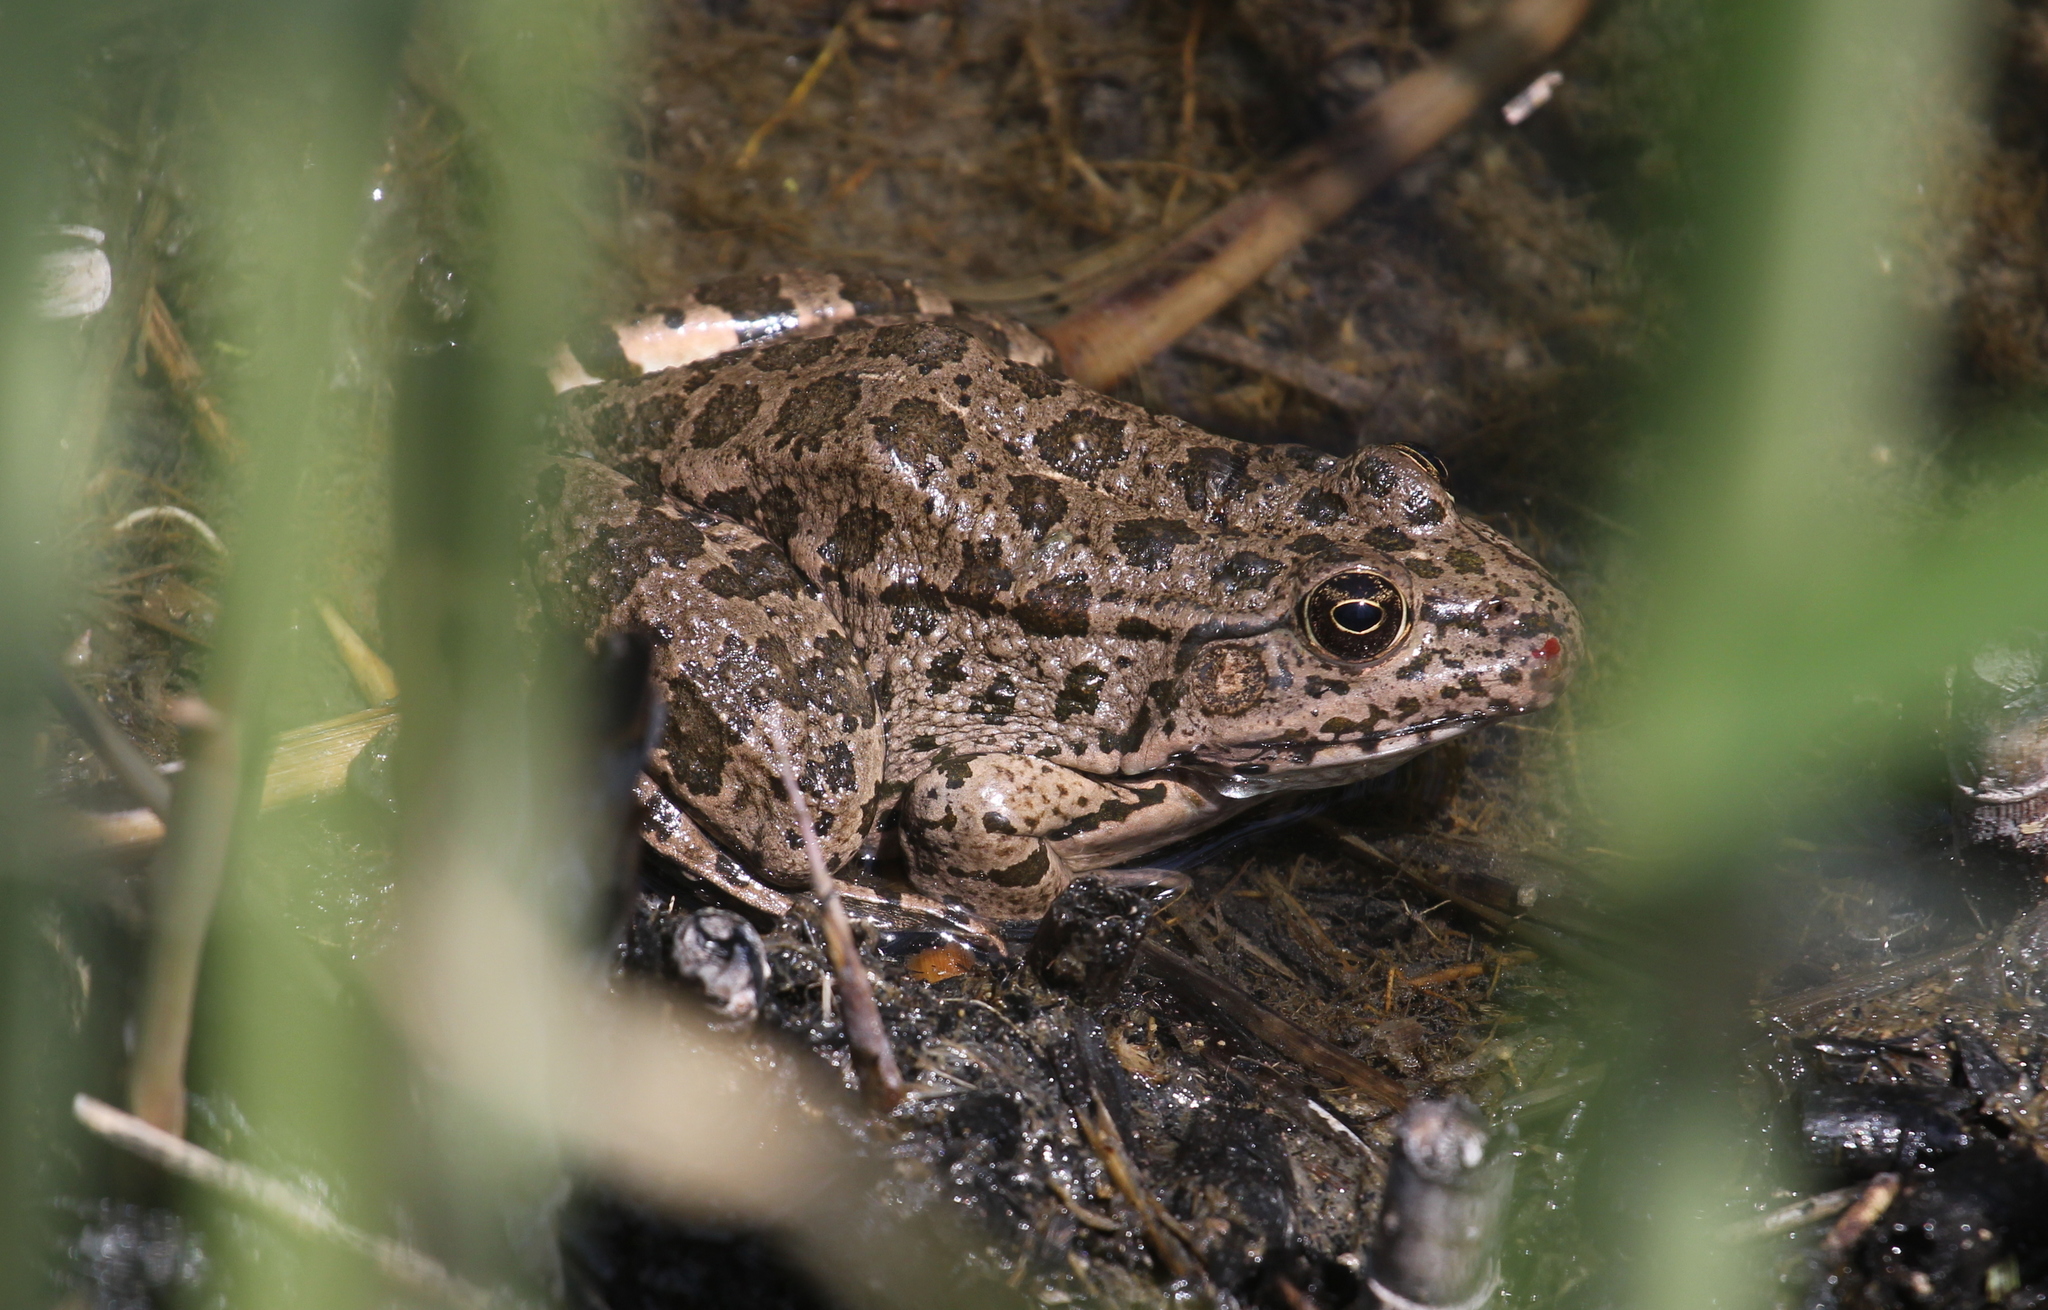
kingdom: Animalia
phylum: Chordata
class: Amphibia
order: Anura
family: Ranidae
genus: Pelophylax
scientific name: Pelophylax ridibundus
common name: Marsh frog
